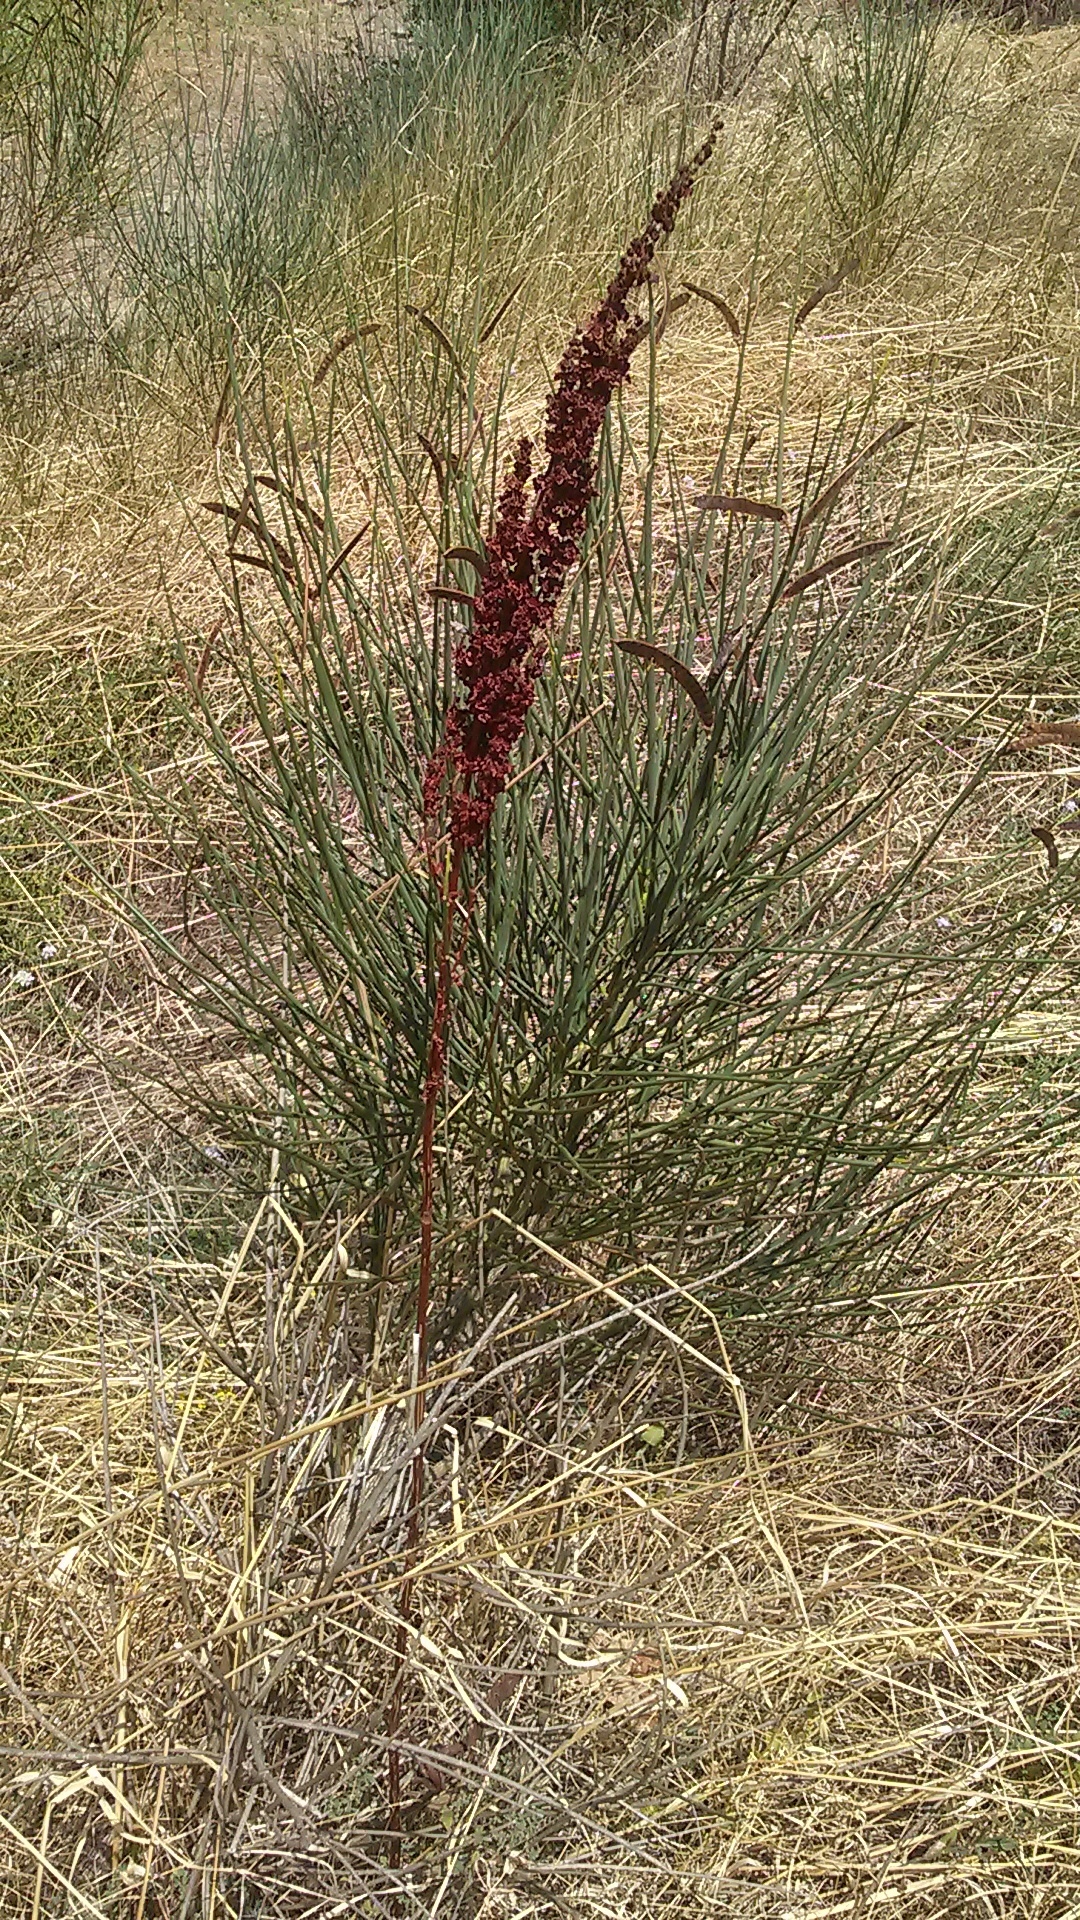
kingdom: Plantae
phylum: Tracheophyta
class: Magnoliopsida
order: Caryophyllales
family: Polygonaceae
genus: Rumex
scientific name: Rumex crispus
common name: Curled dock
